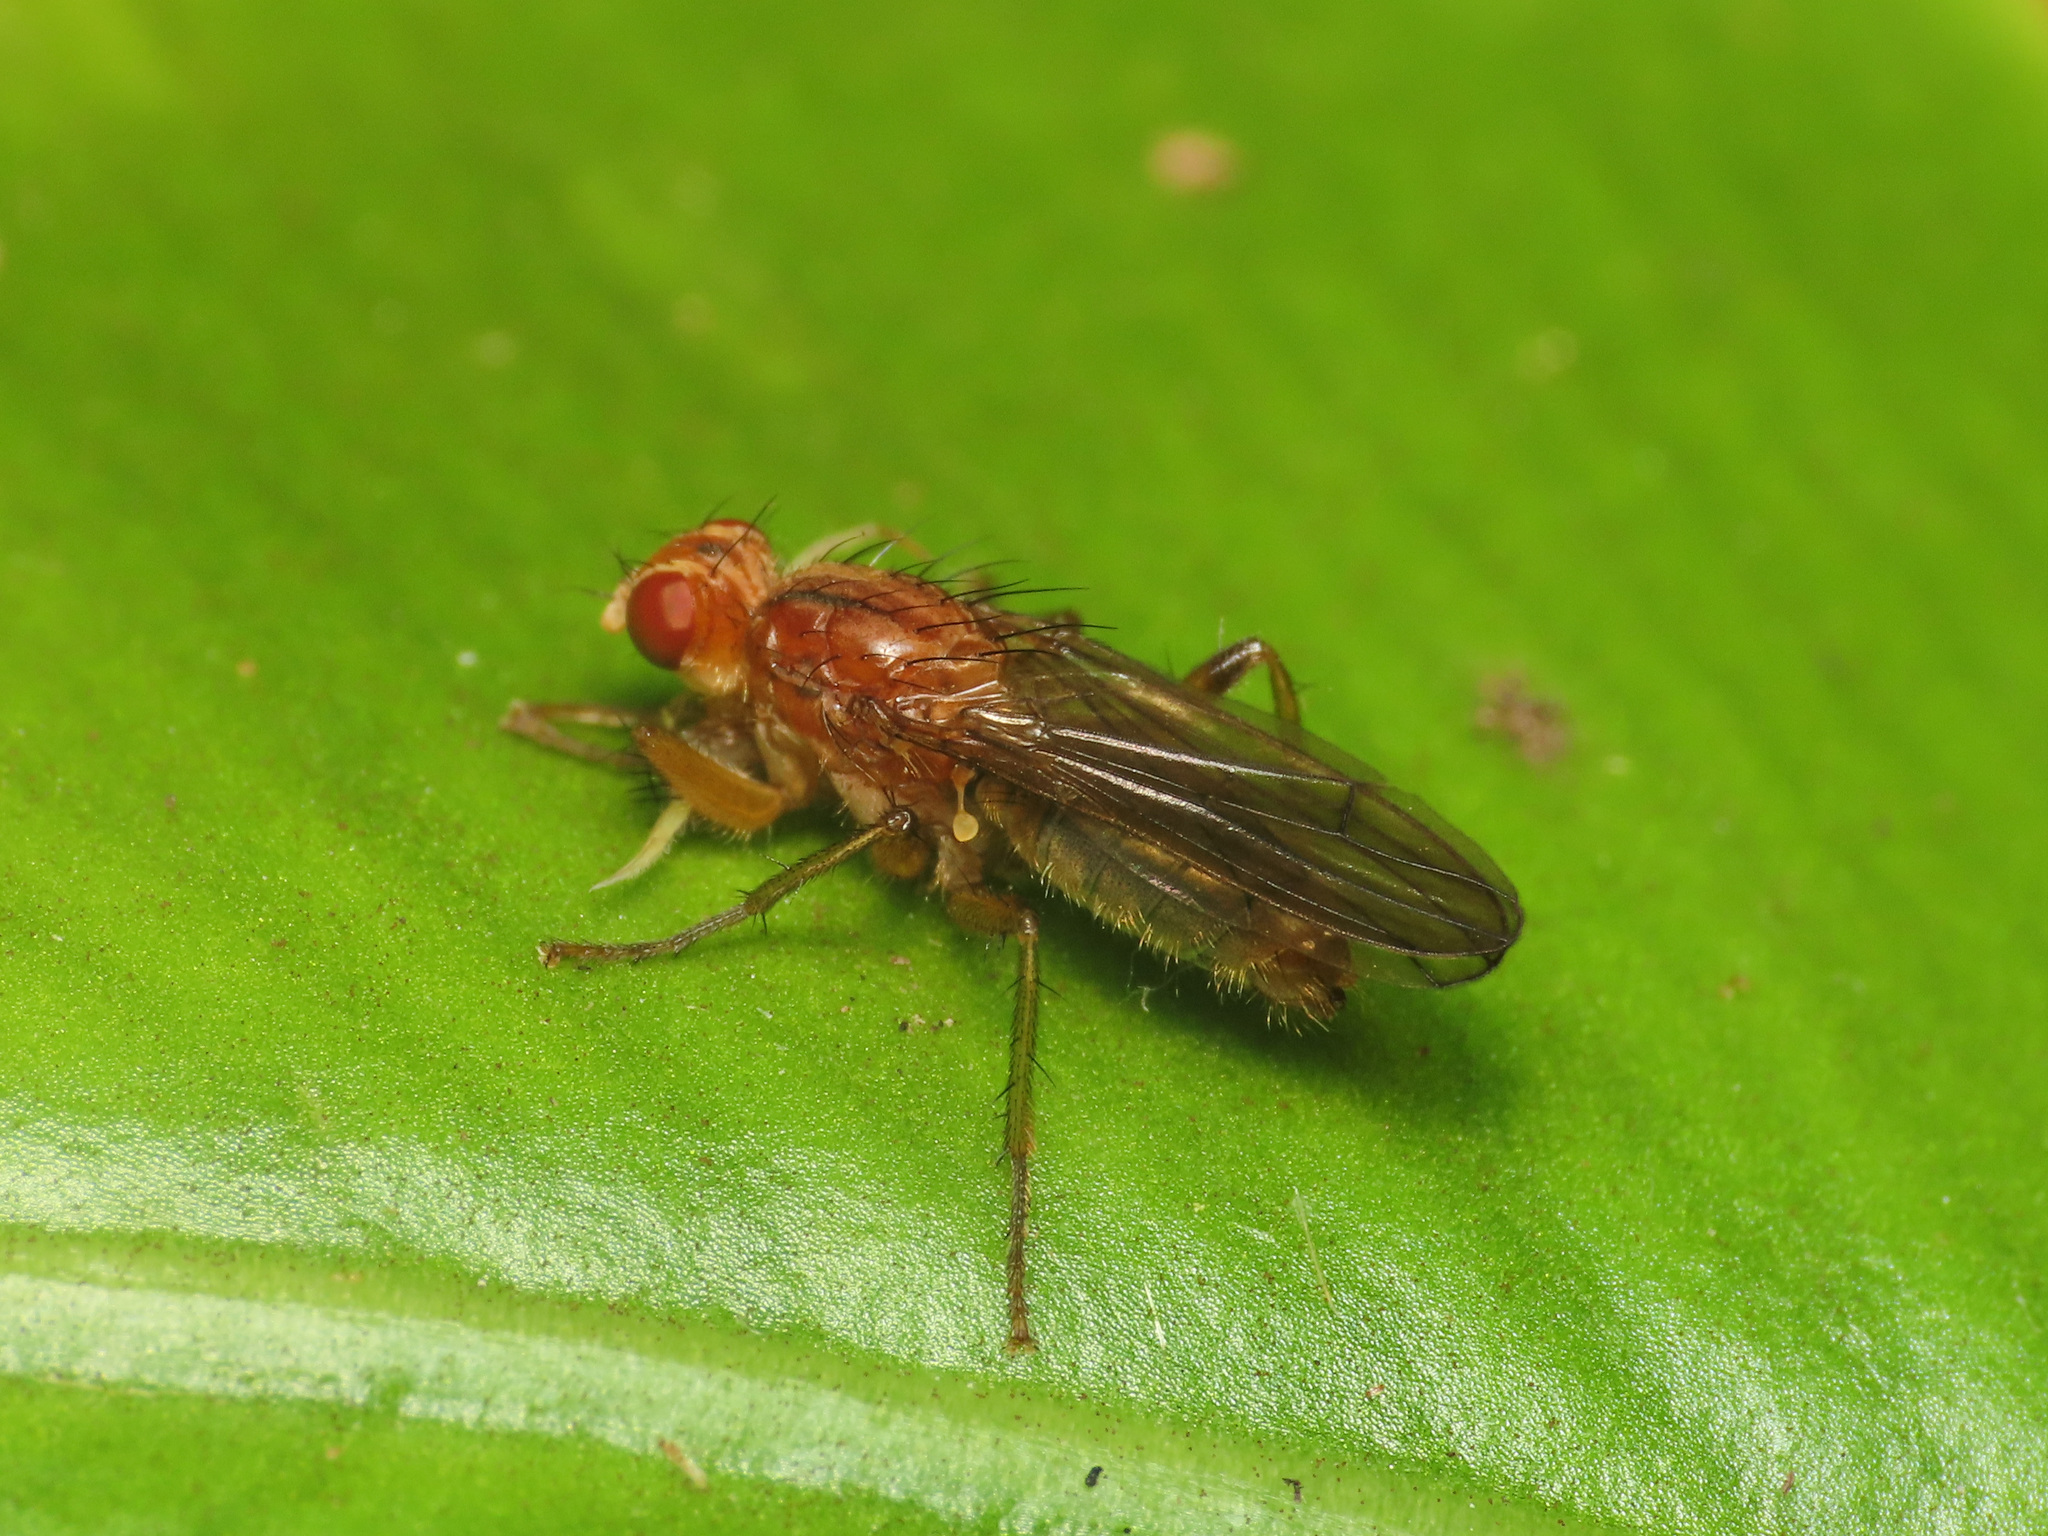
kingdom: Animalia
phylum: Arthropoda
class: Insecta
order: Diptera
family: Scathophagidae
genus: Norellisoma
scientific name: Norellisoma spinimanum
